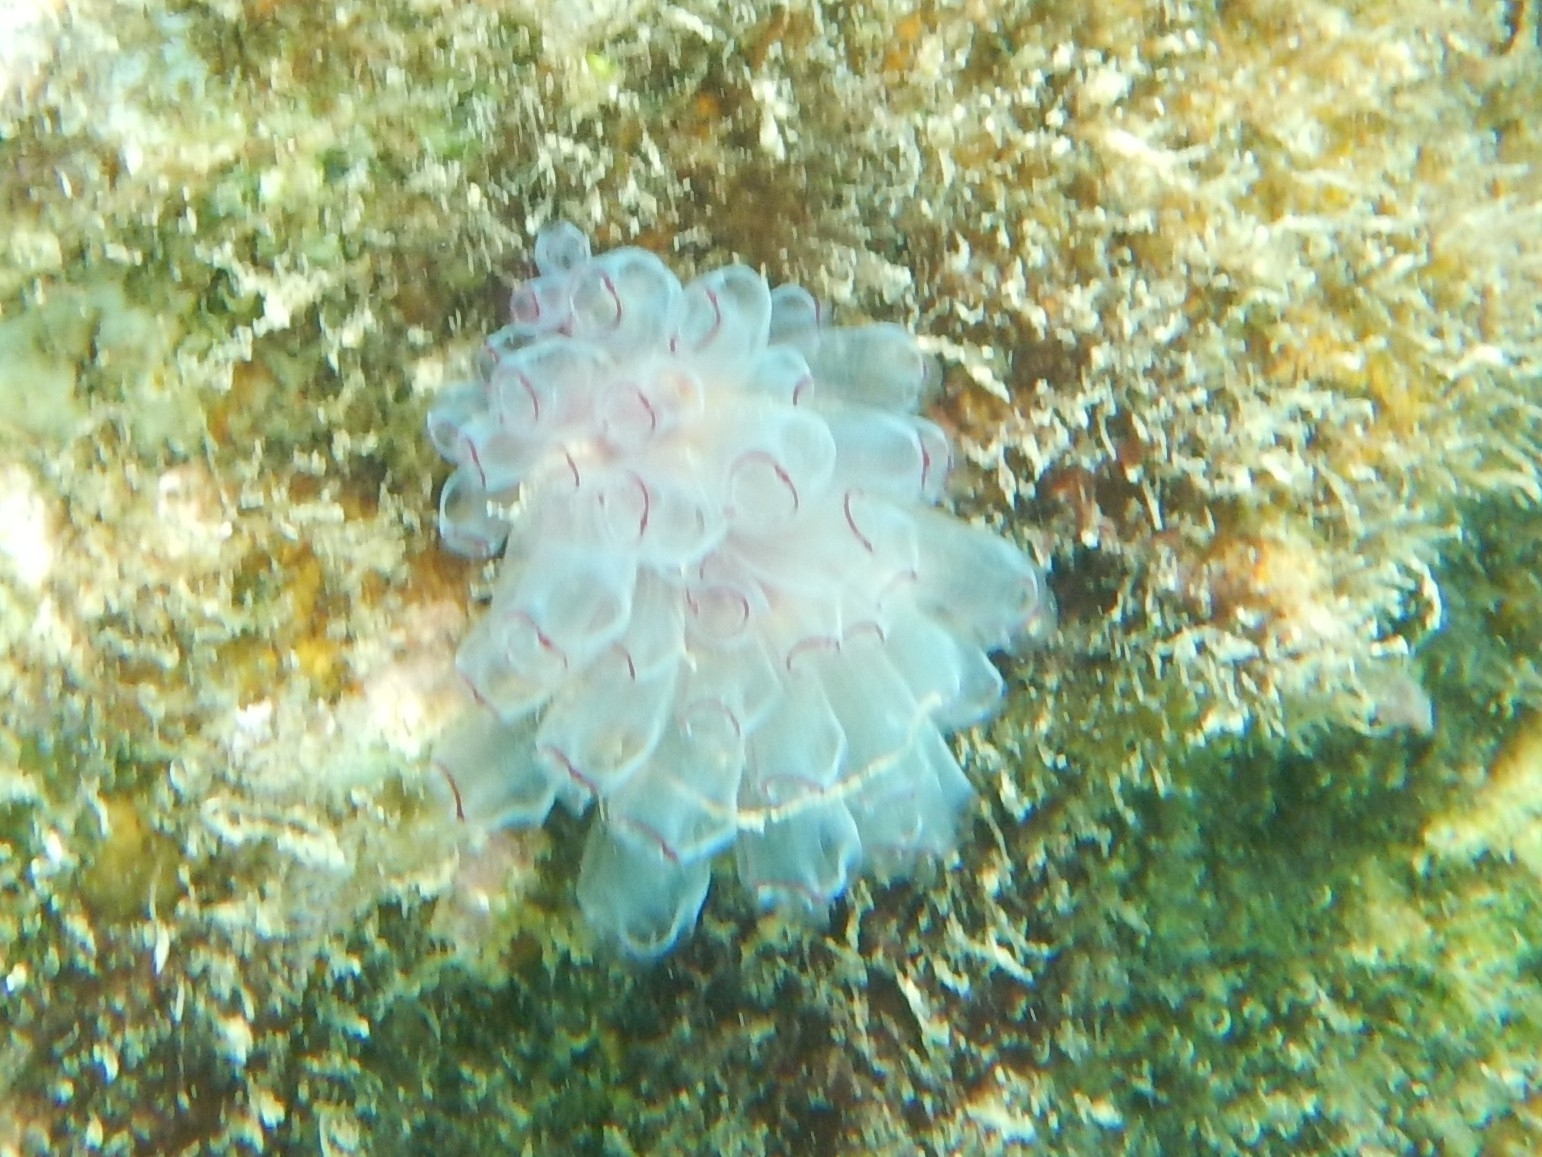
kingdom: Animalia
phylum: Chordata
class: Ascidiacea
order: Aplousobranchia
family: Clavelinidae
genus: Clavelina
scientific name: Clavelina picta
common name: Painted tunicate
